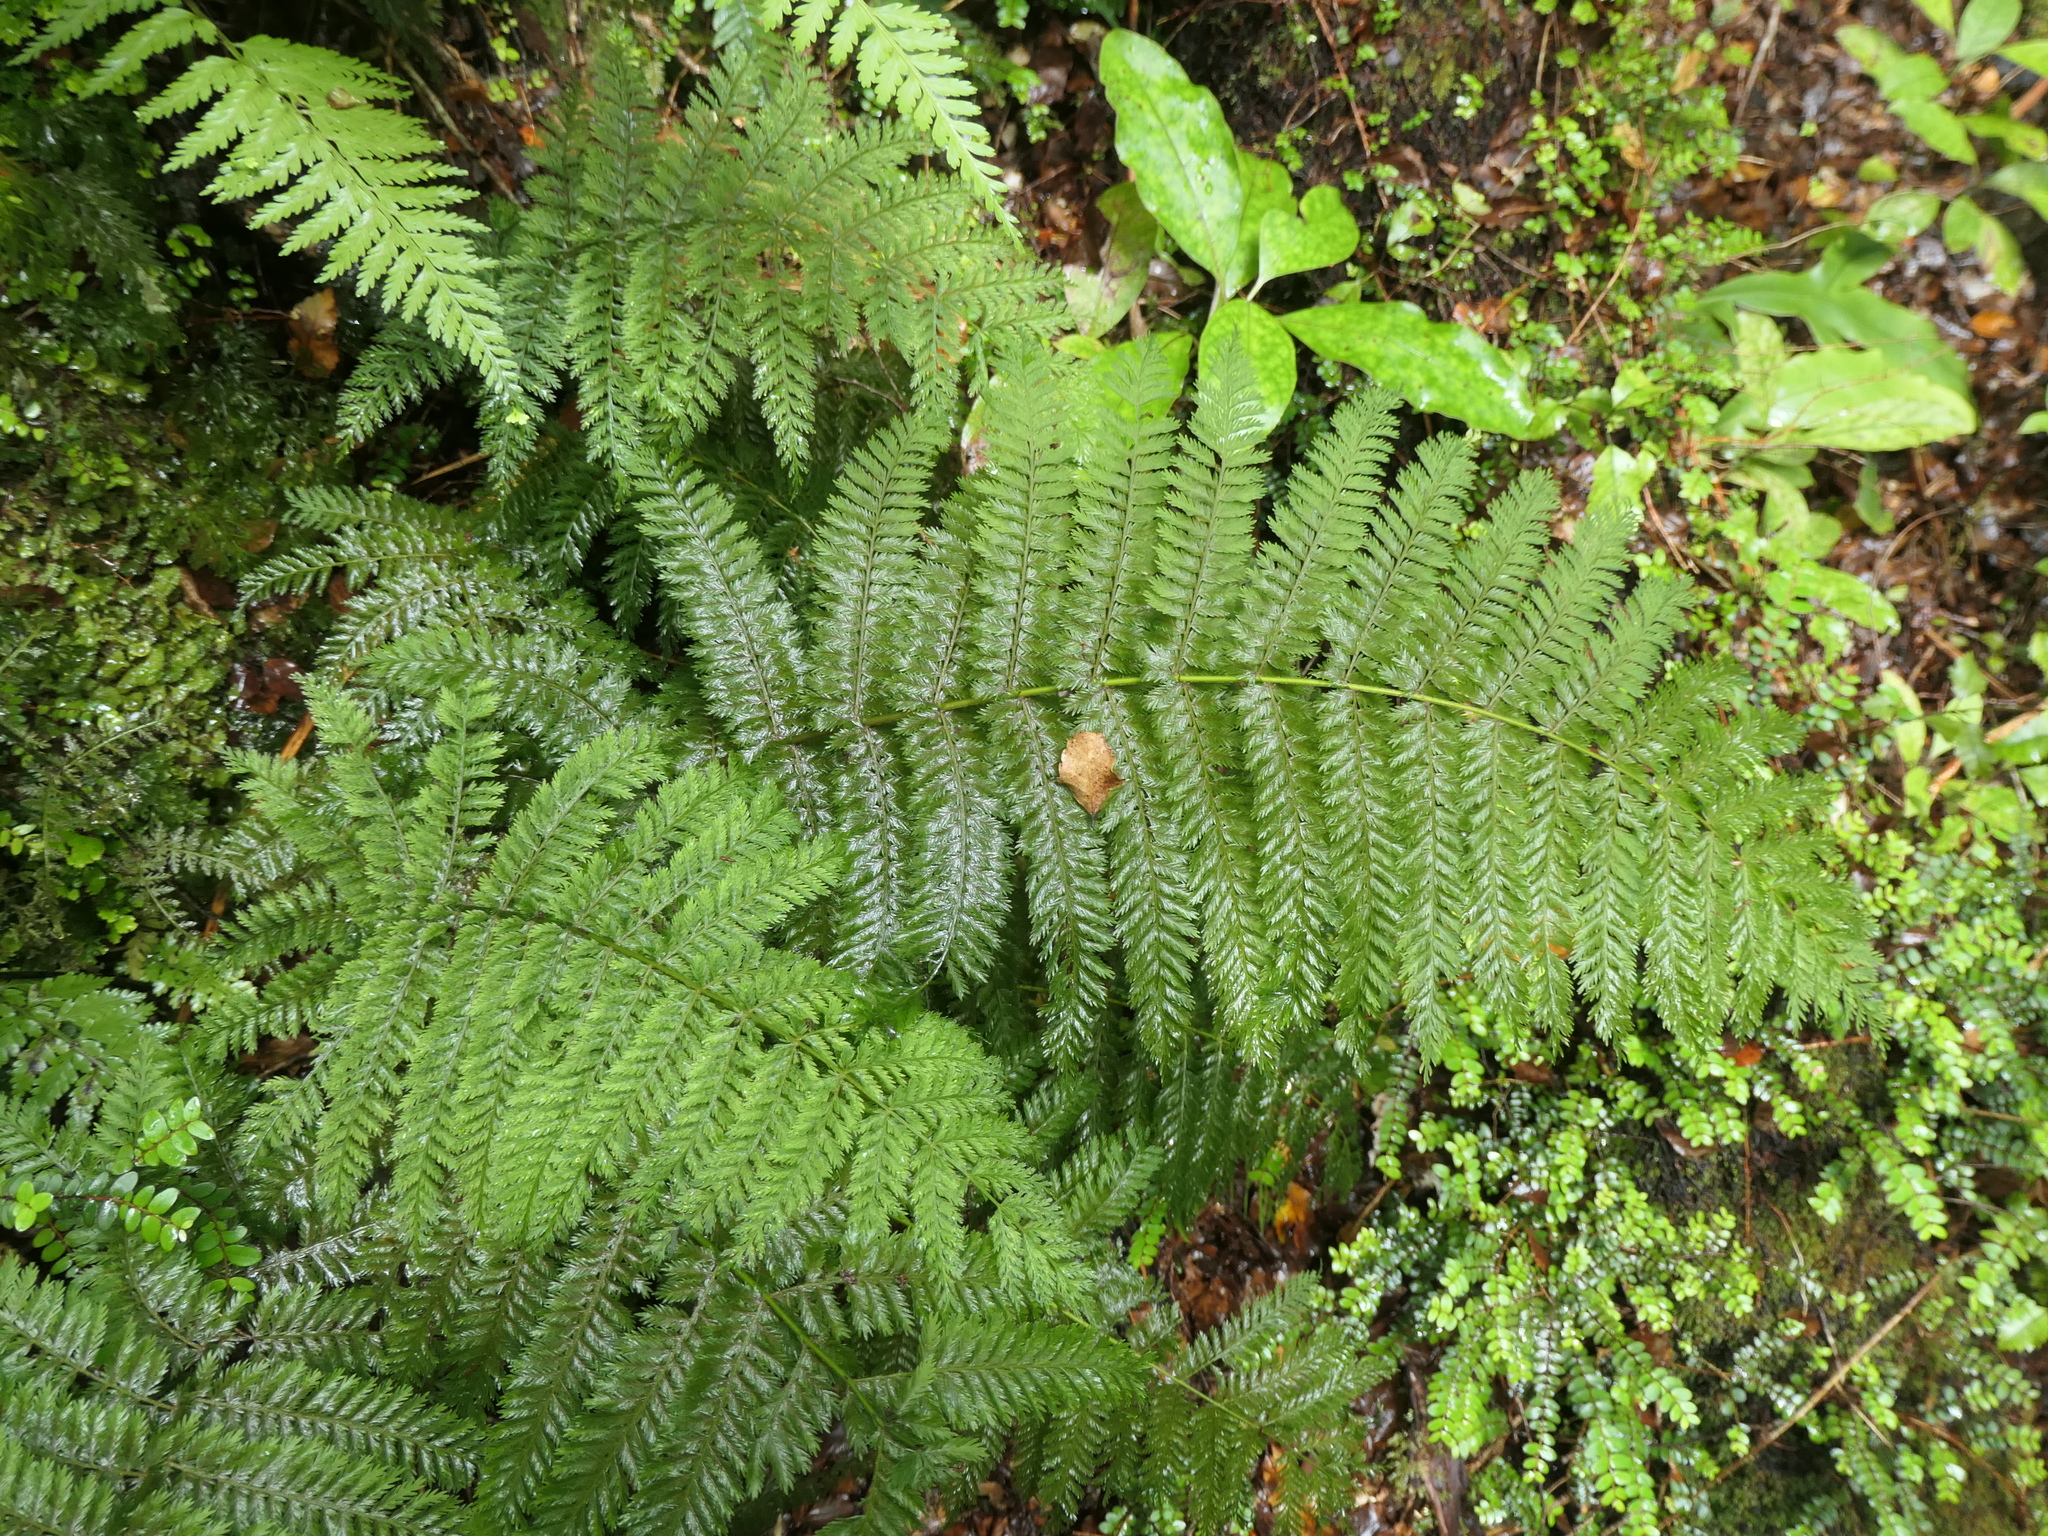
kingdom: Plantae
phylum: Tracheophyta
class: Polypodiopsida
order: Osmundales
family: Osmundaceae
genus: Leptopteris
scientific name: Leptopteris hymenophylloides
